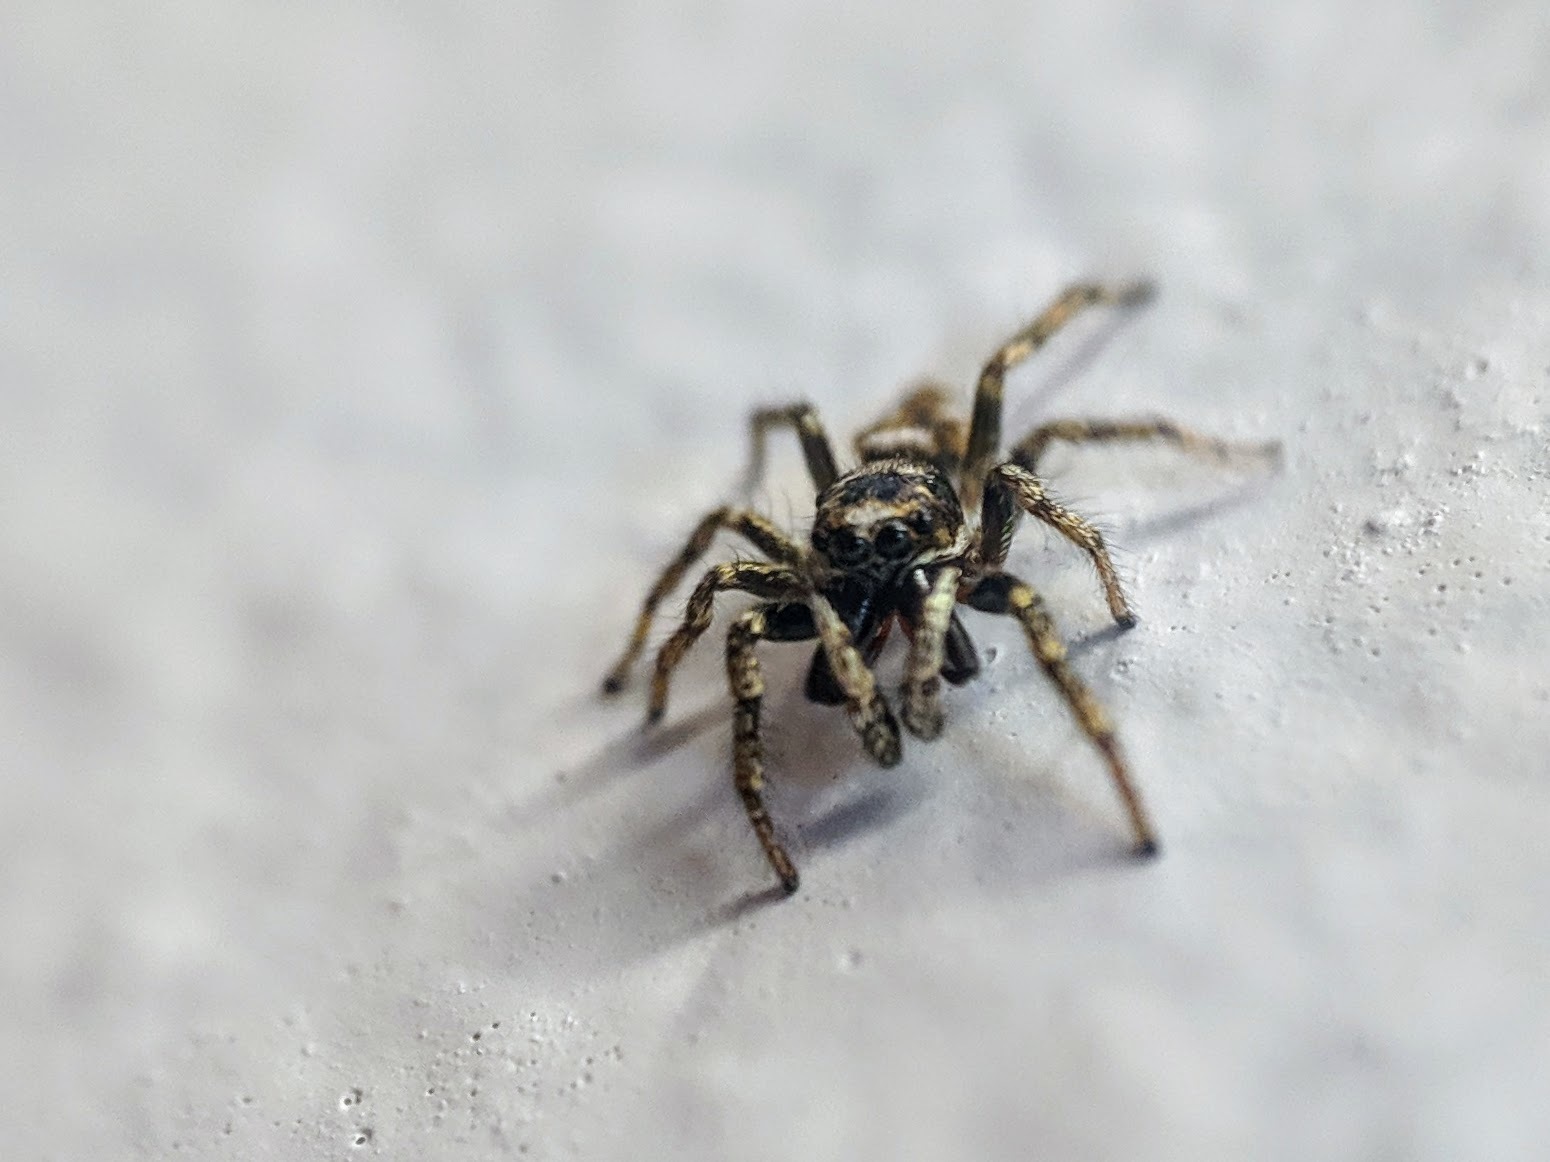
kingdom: Animalia
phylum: Arthropoda
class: Arachnida
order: Araneae
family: Salticidae
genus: Salticus
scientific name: Salticus scenicus
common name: Zebra jumper
